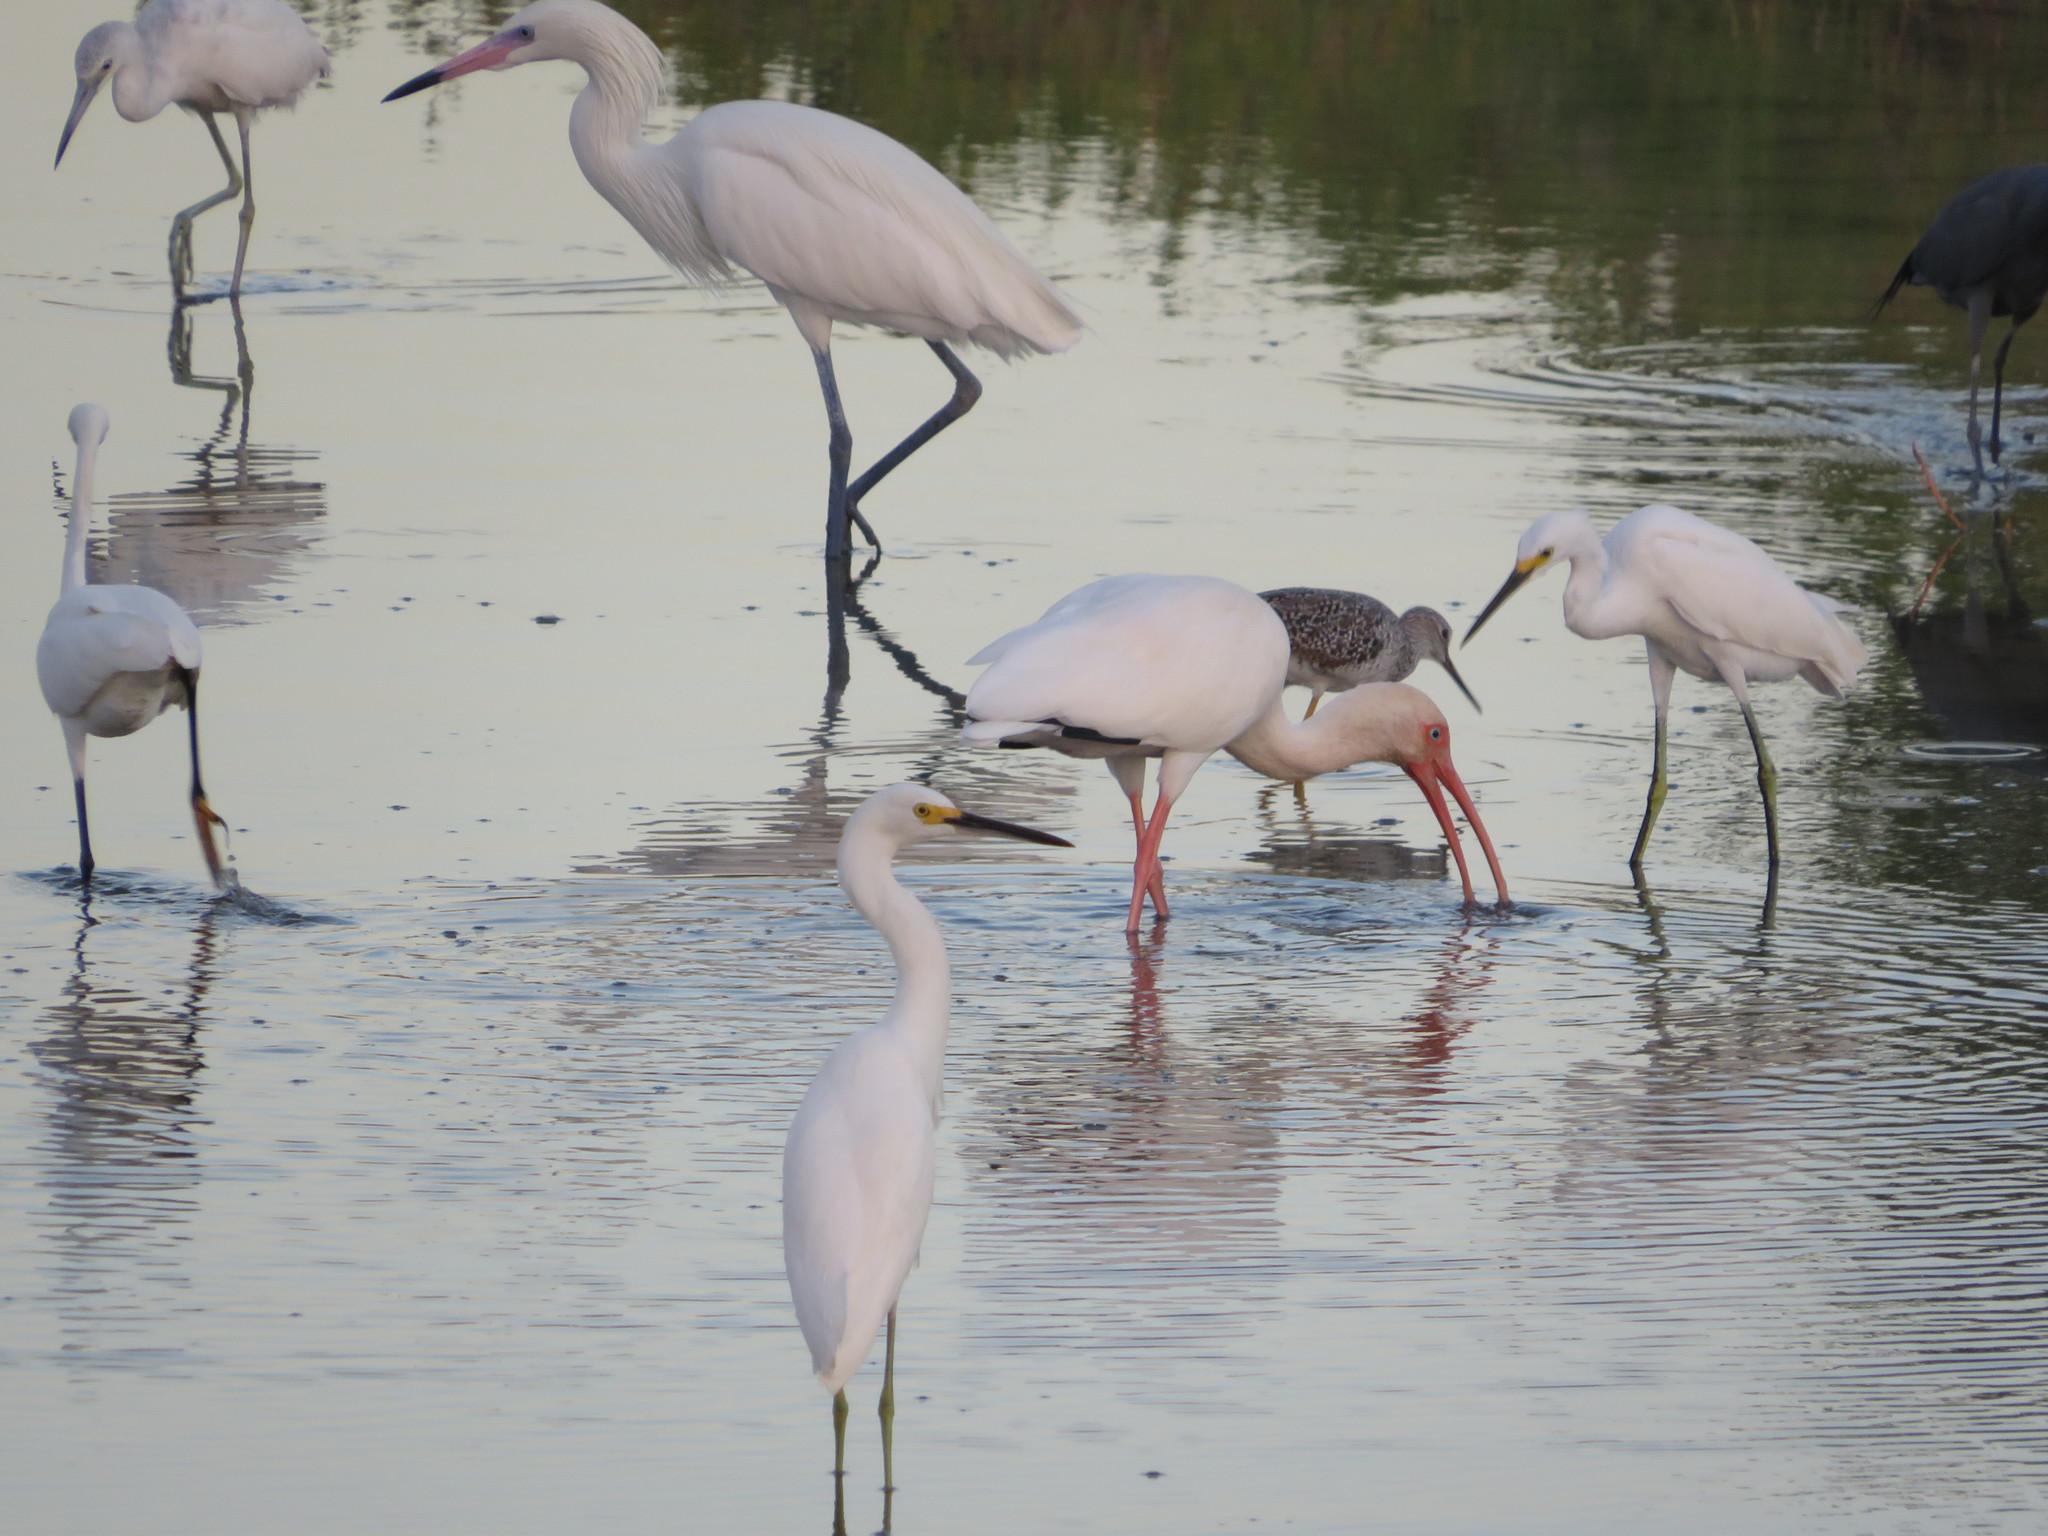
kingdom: Animalia
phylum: Chordata
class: Aves
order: Pelecaniformes
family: Ardeidae
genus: Egretta
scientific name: Egretta rufescens
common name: Reddish egret
